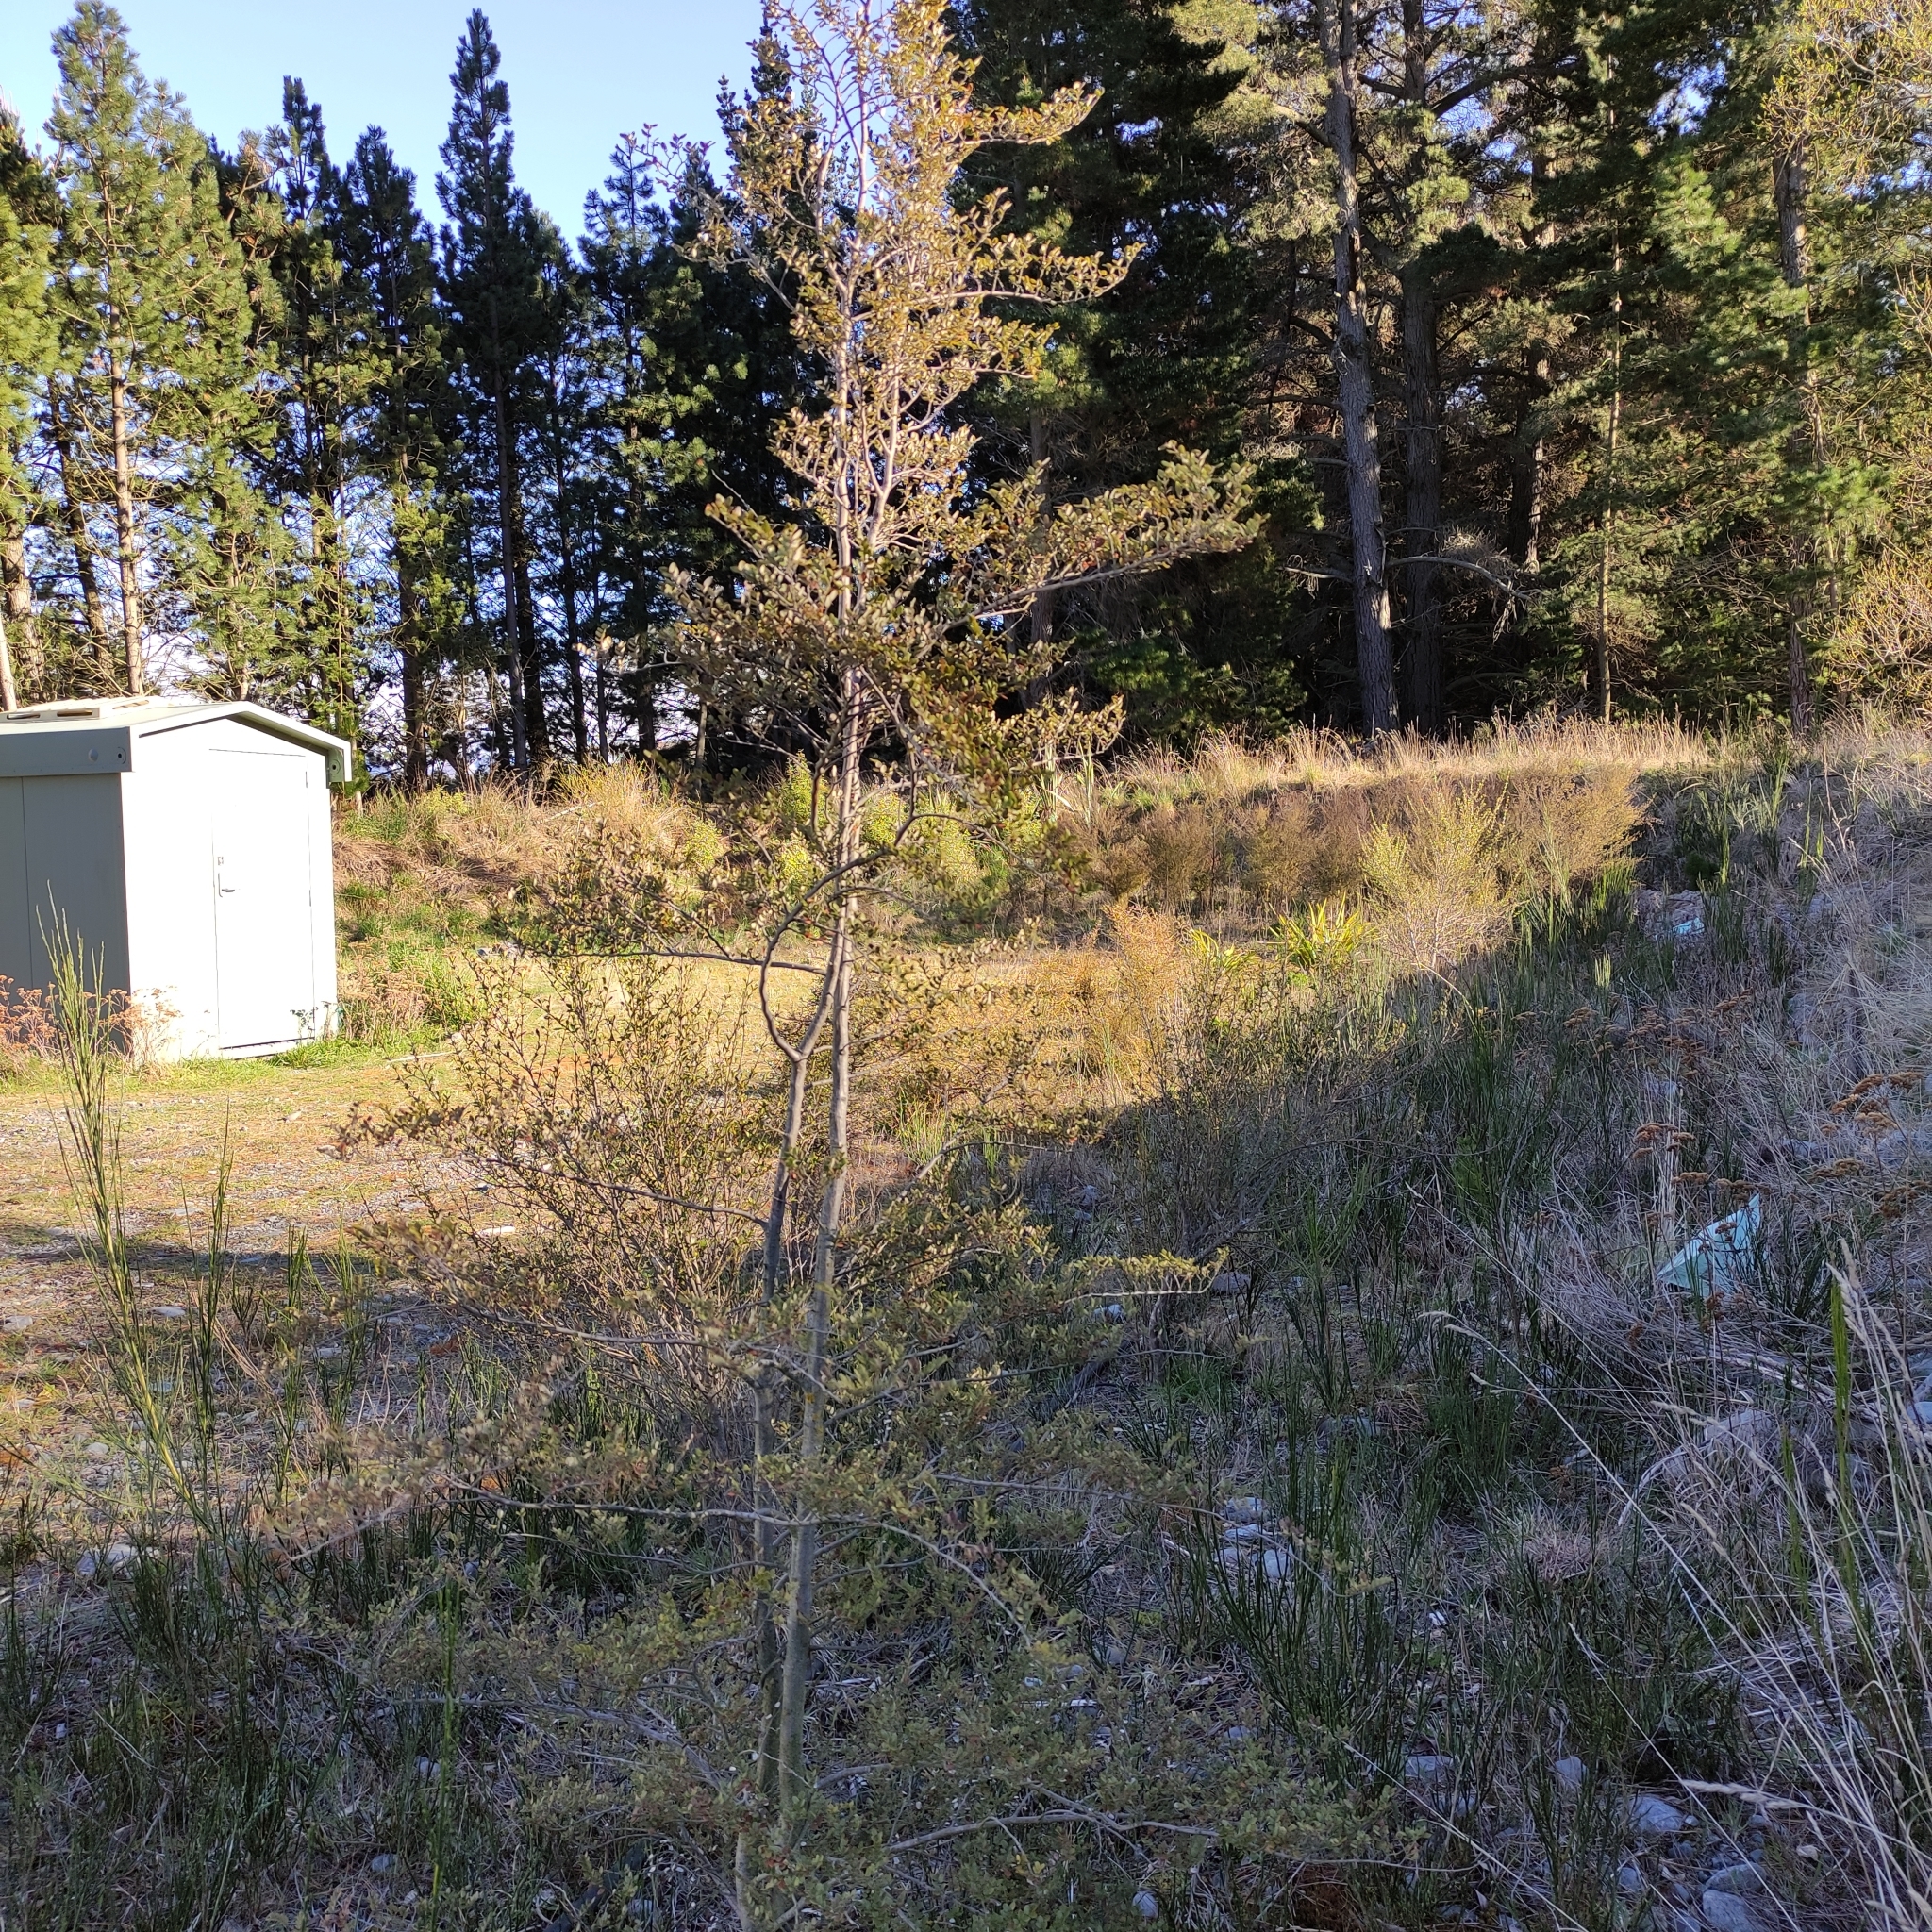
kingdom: Plantae
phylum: Tracheophyta
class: Magnoliopsida
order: Fagales
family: Nothofagaceae
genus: Nothofagus
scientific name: Nothofagus cliffortioides
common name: Mountain beech
